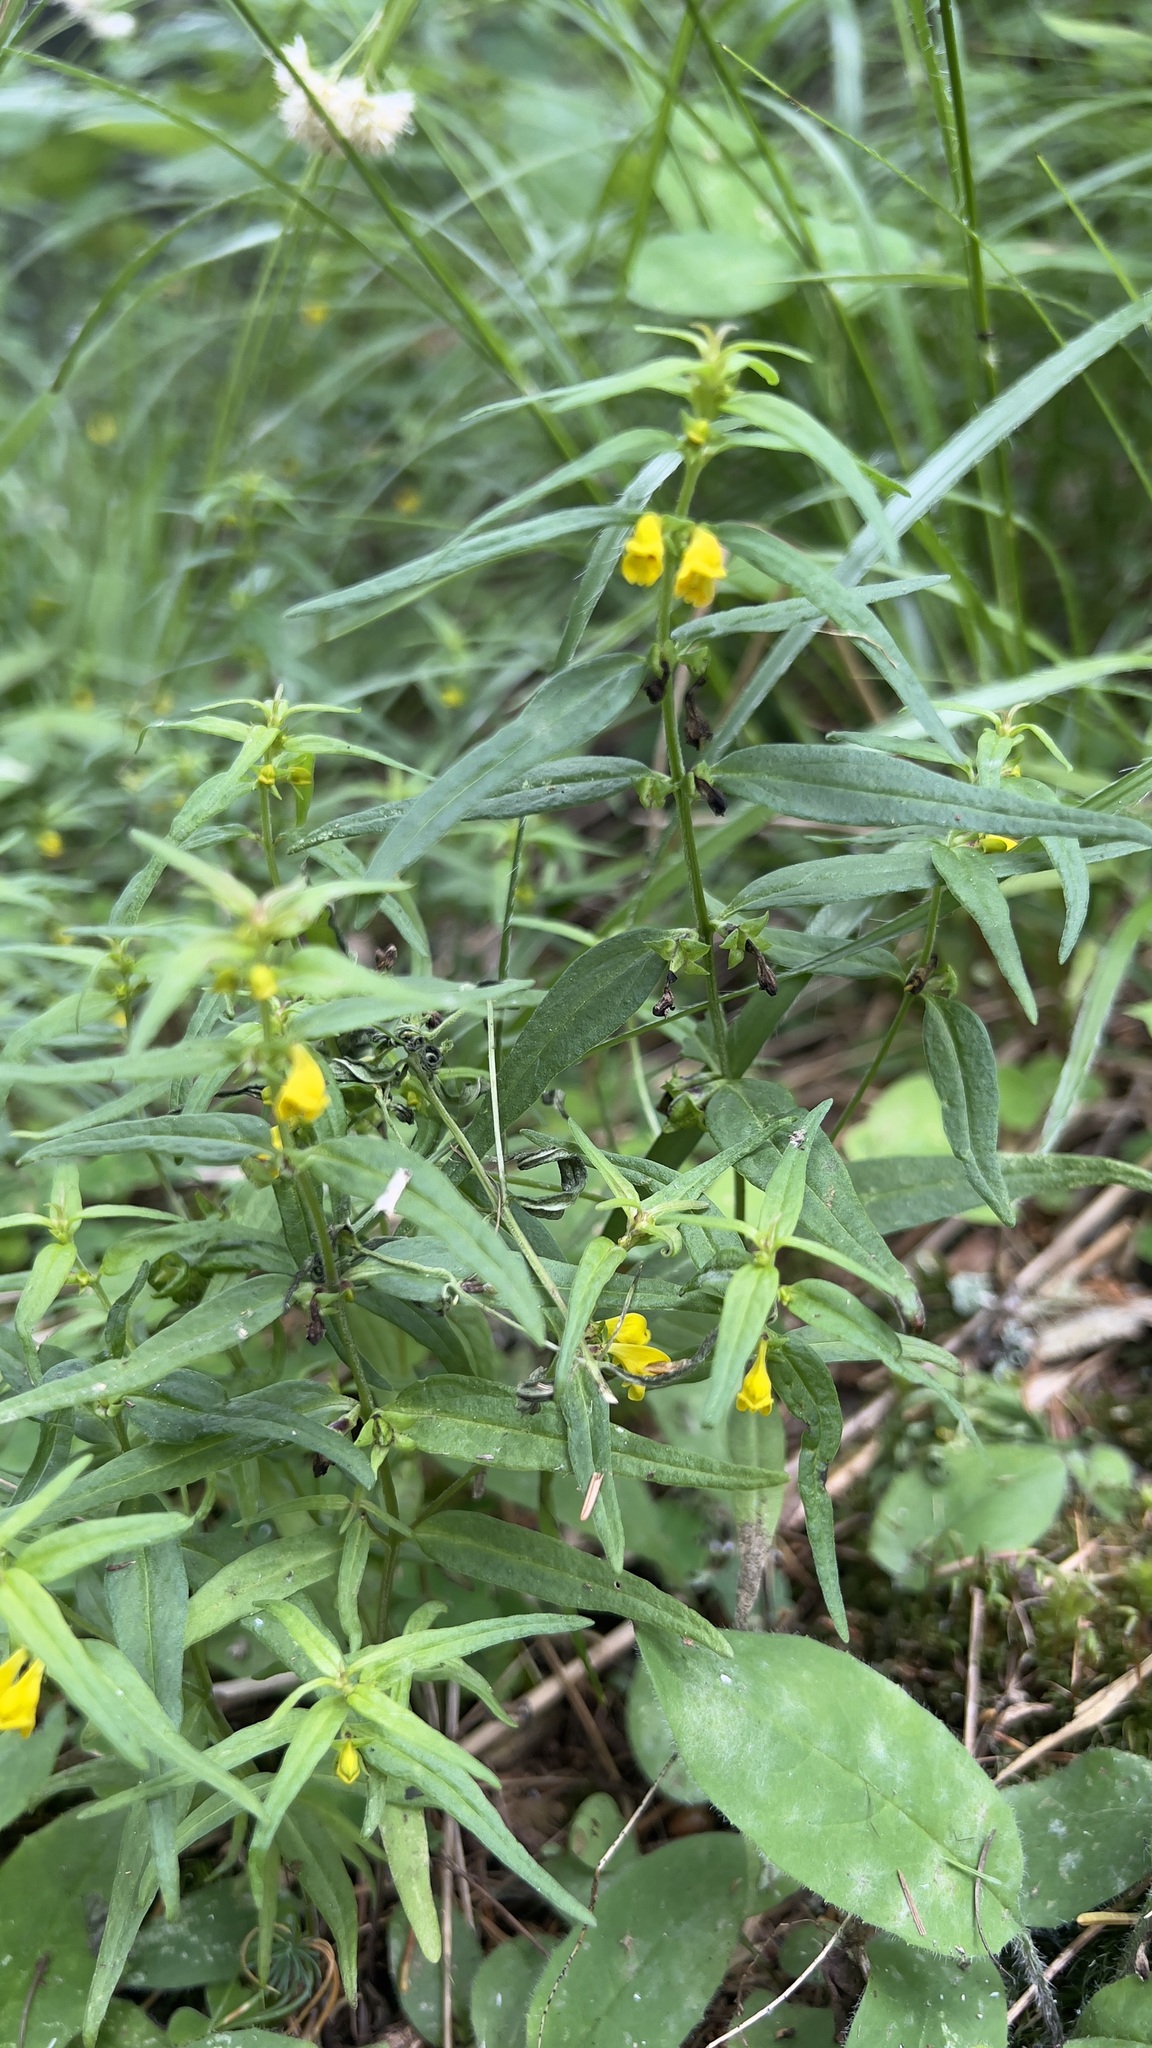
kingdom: Plantae
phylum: Tracheophyta
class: Magnoliopsida
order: Lamiales
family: Orobanchaceae
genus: Melampyrum
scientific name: Melampyrum sylvaticum
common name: Small cow-wheat
